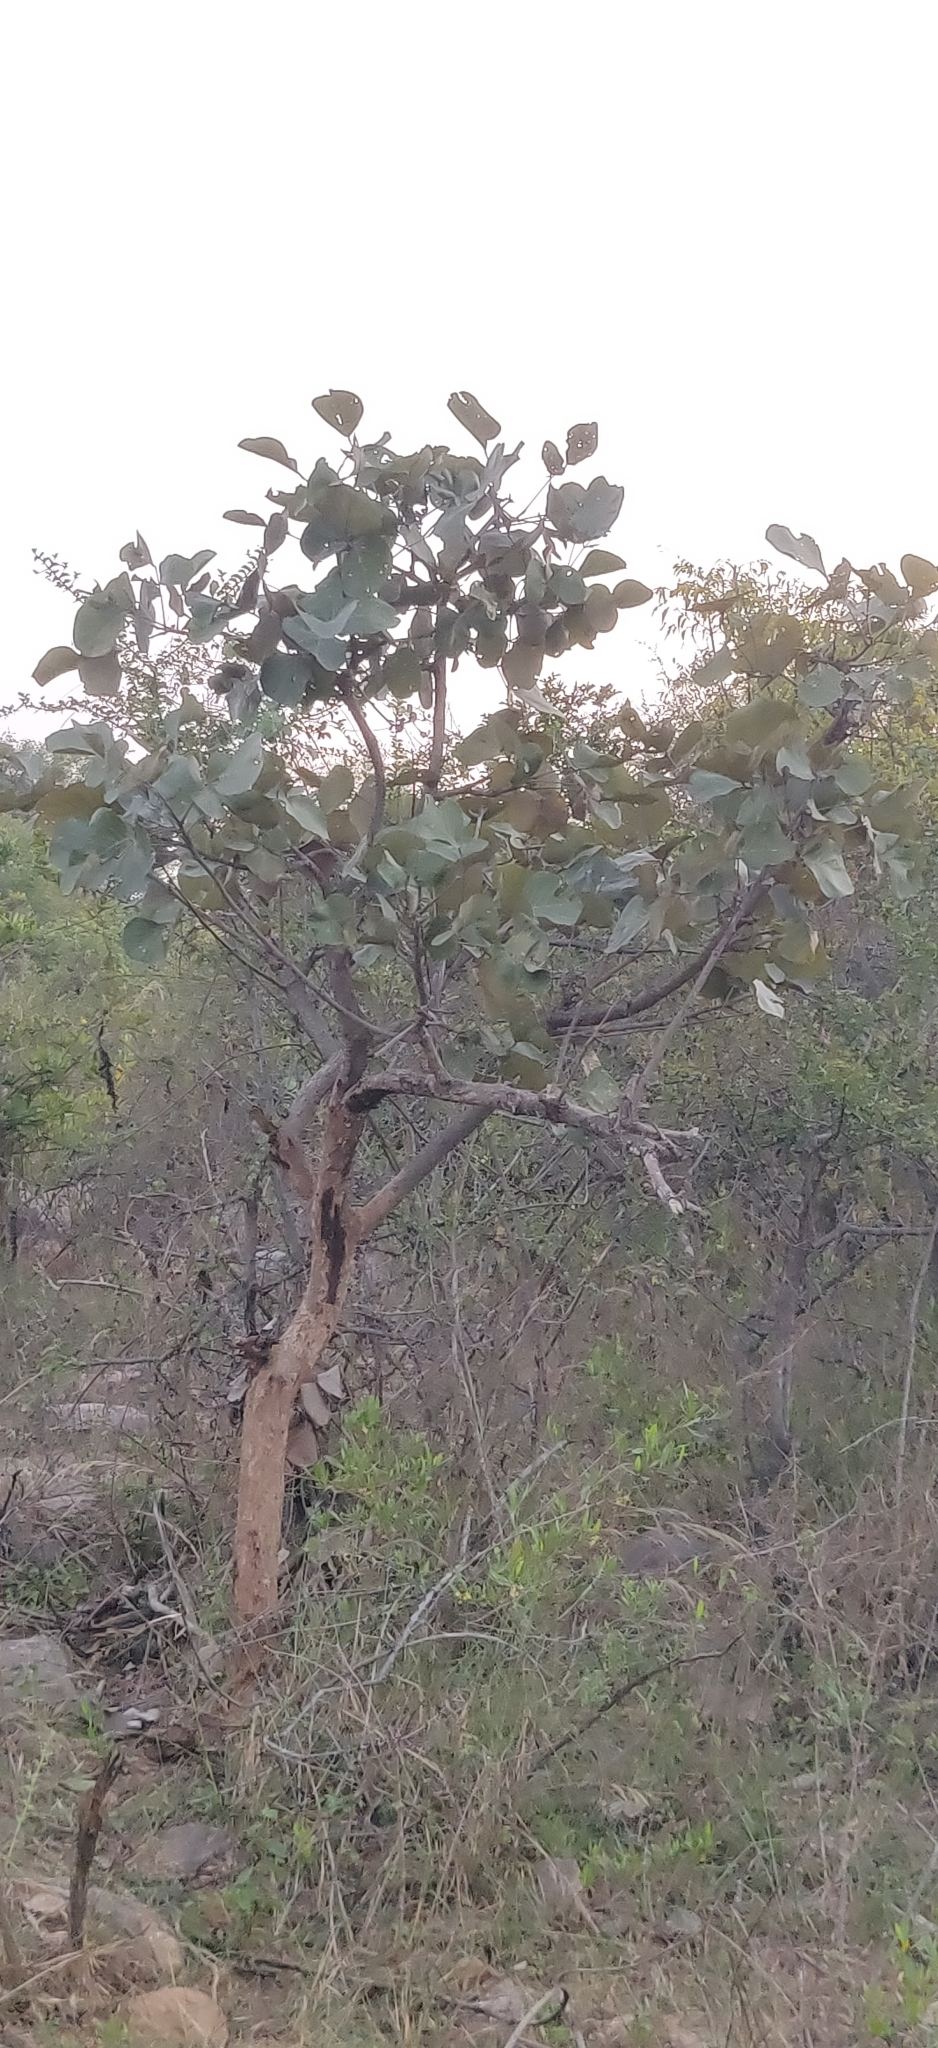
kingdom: Plantae
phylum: Tracheophyta
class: Magnoliopsida
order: Fabales
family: Fabaceae
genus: Butea
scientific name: Butea monosperma
